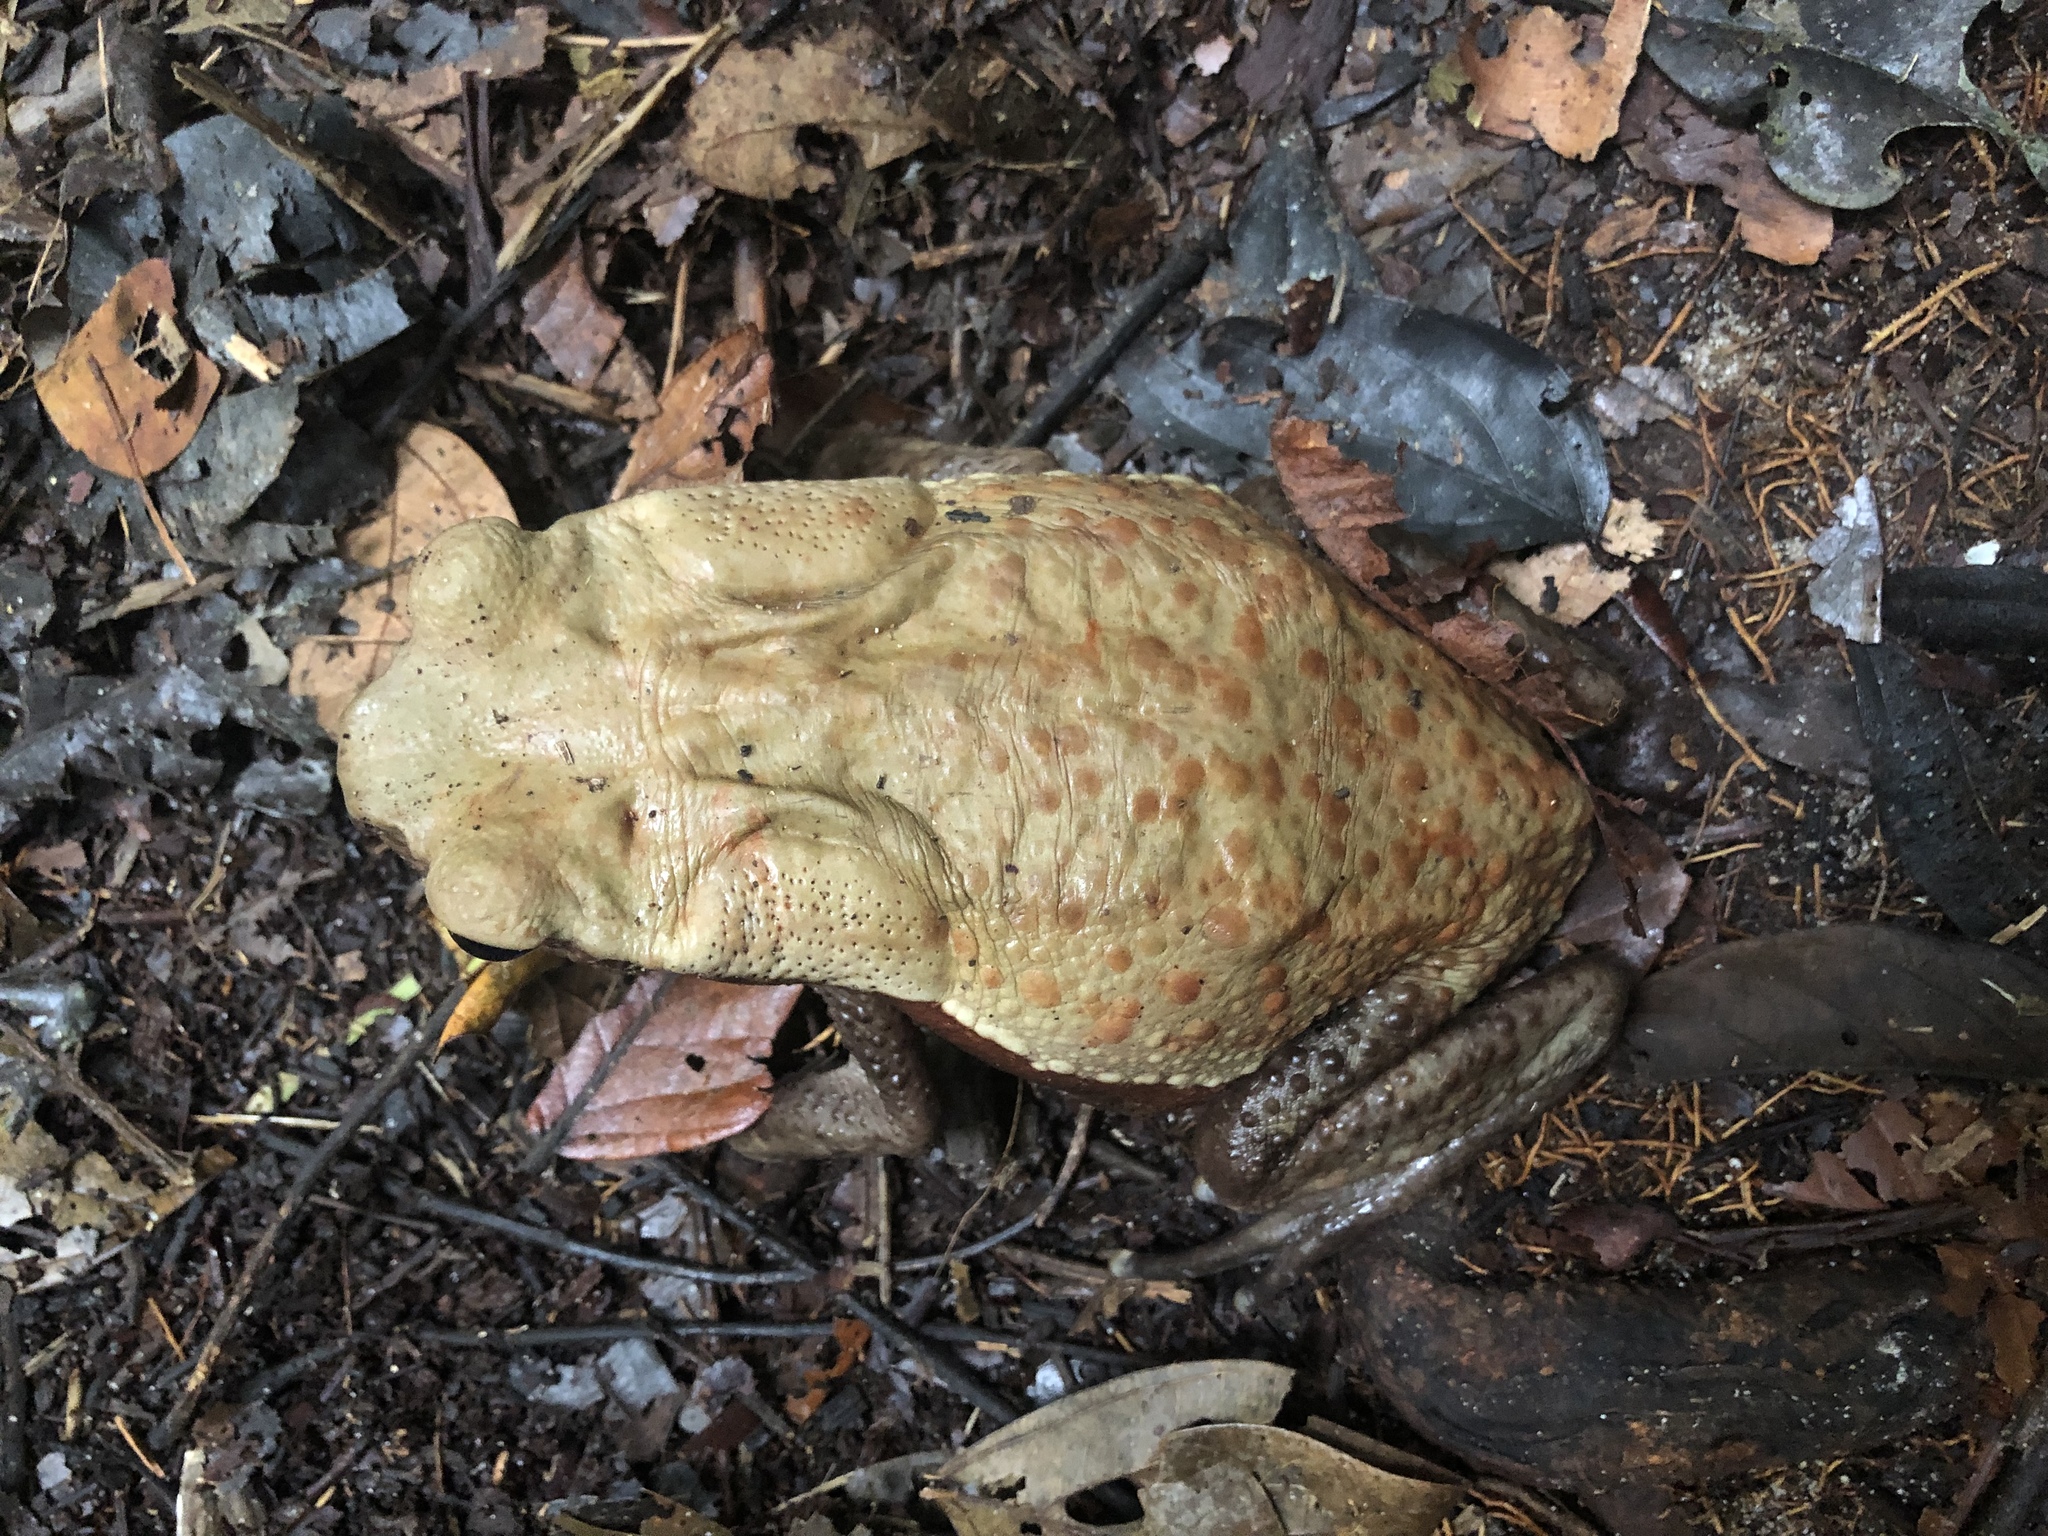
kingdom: Animalia
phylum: Chordata
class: Amphibia
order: Anura
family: Bufonidae
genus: Rhaebo
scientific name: Rhaebo guttatus
